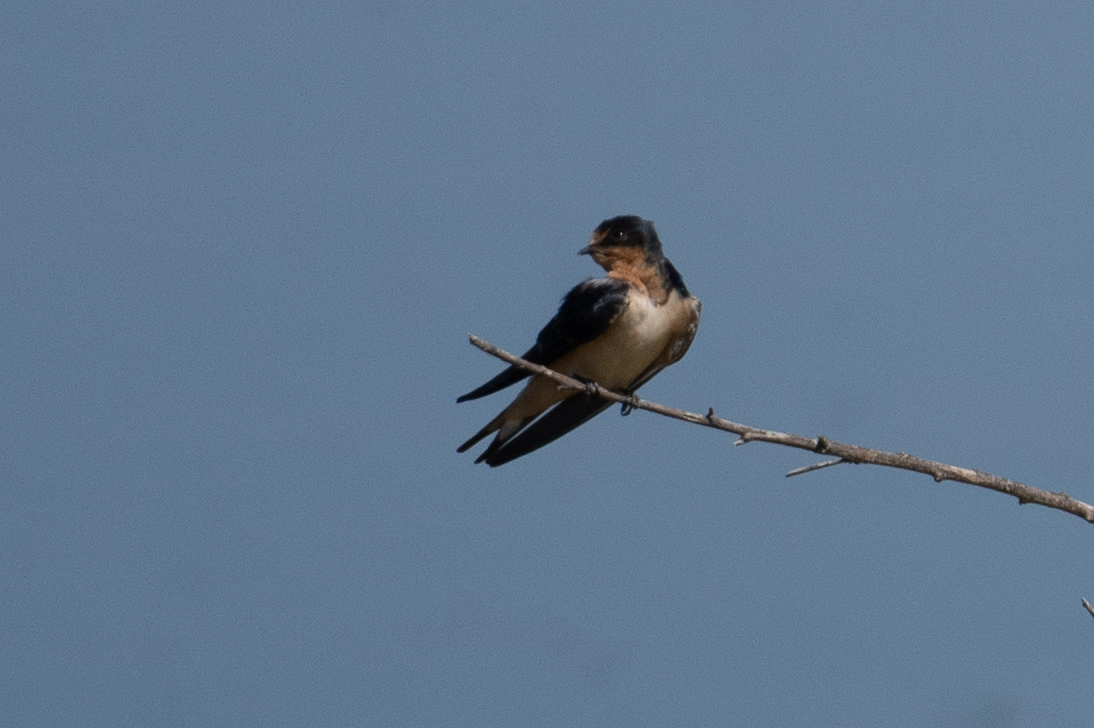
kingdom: Animalia
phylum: Chordata
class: Aves
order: Passeriformes
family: Hirundinidae
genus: Hirundo
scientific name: Hirundo rustica
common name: Barn swallow
